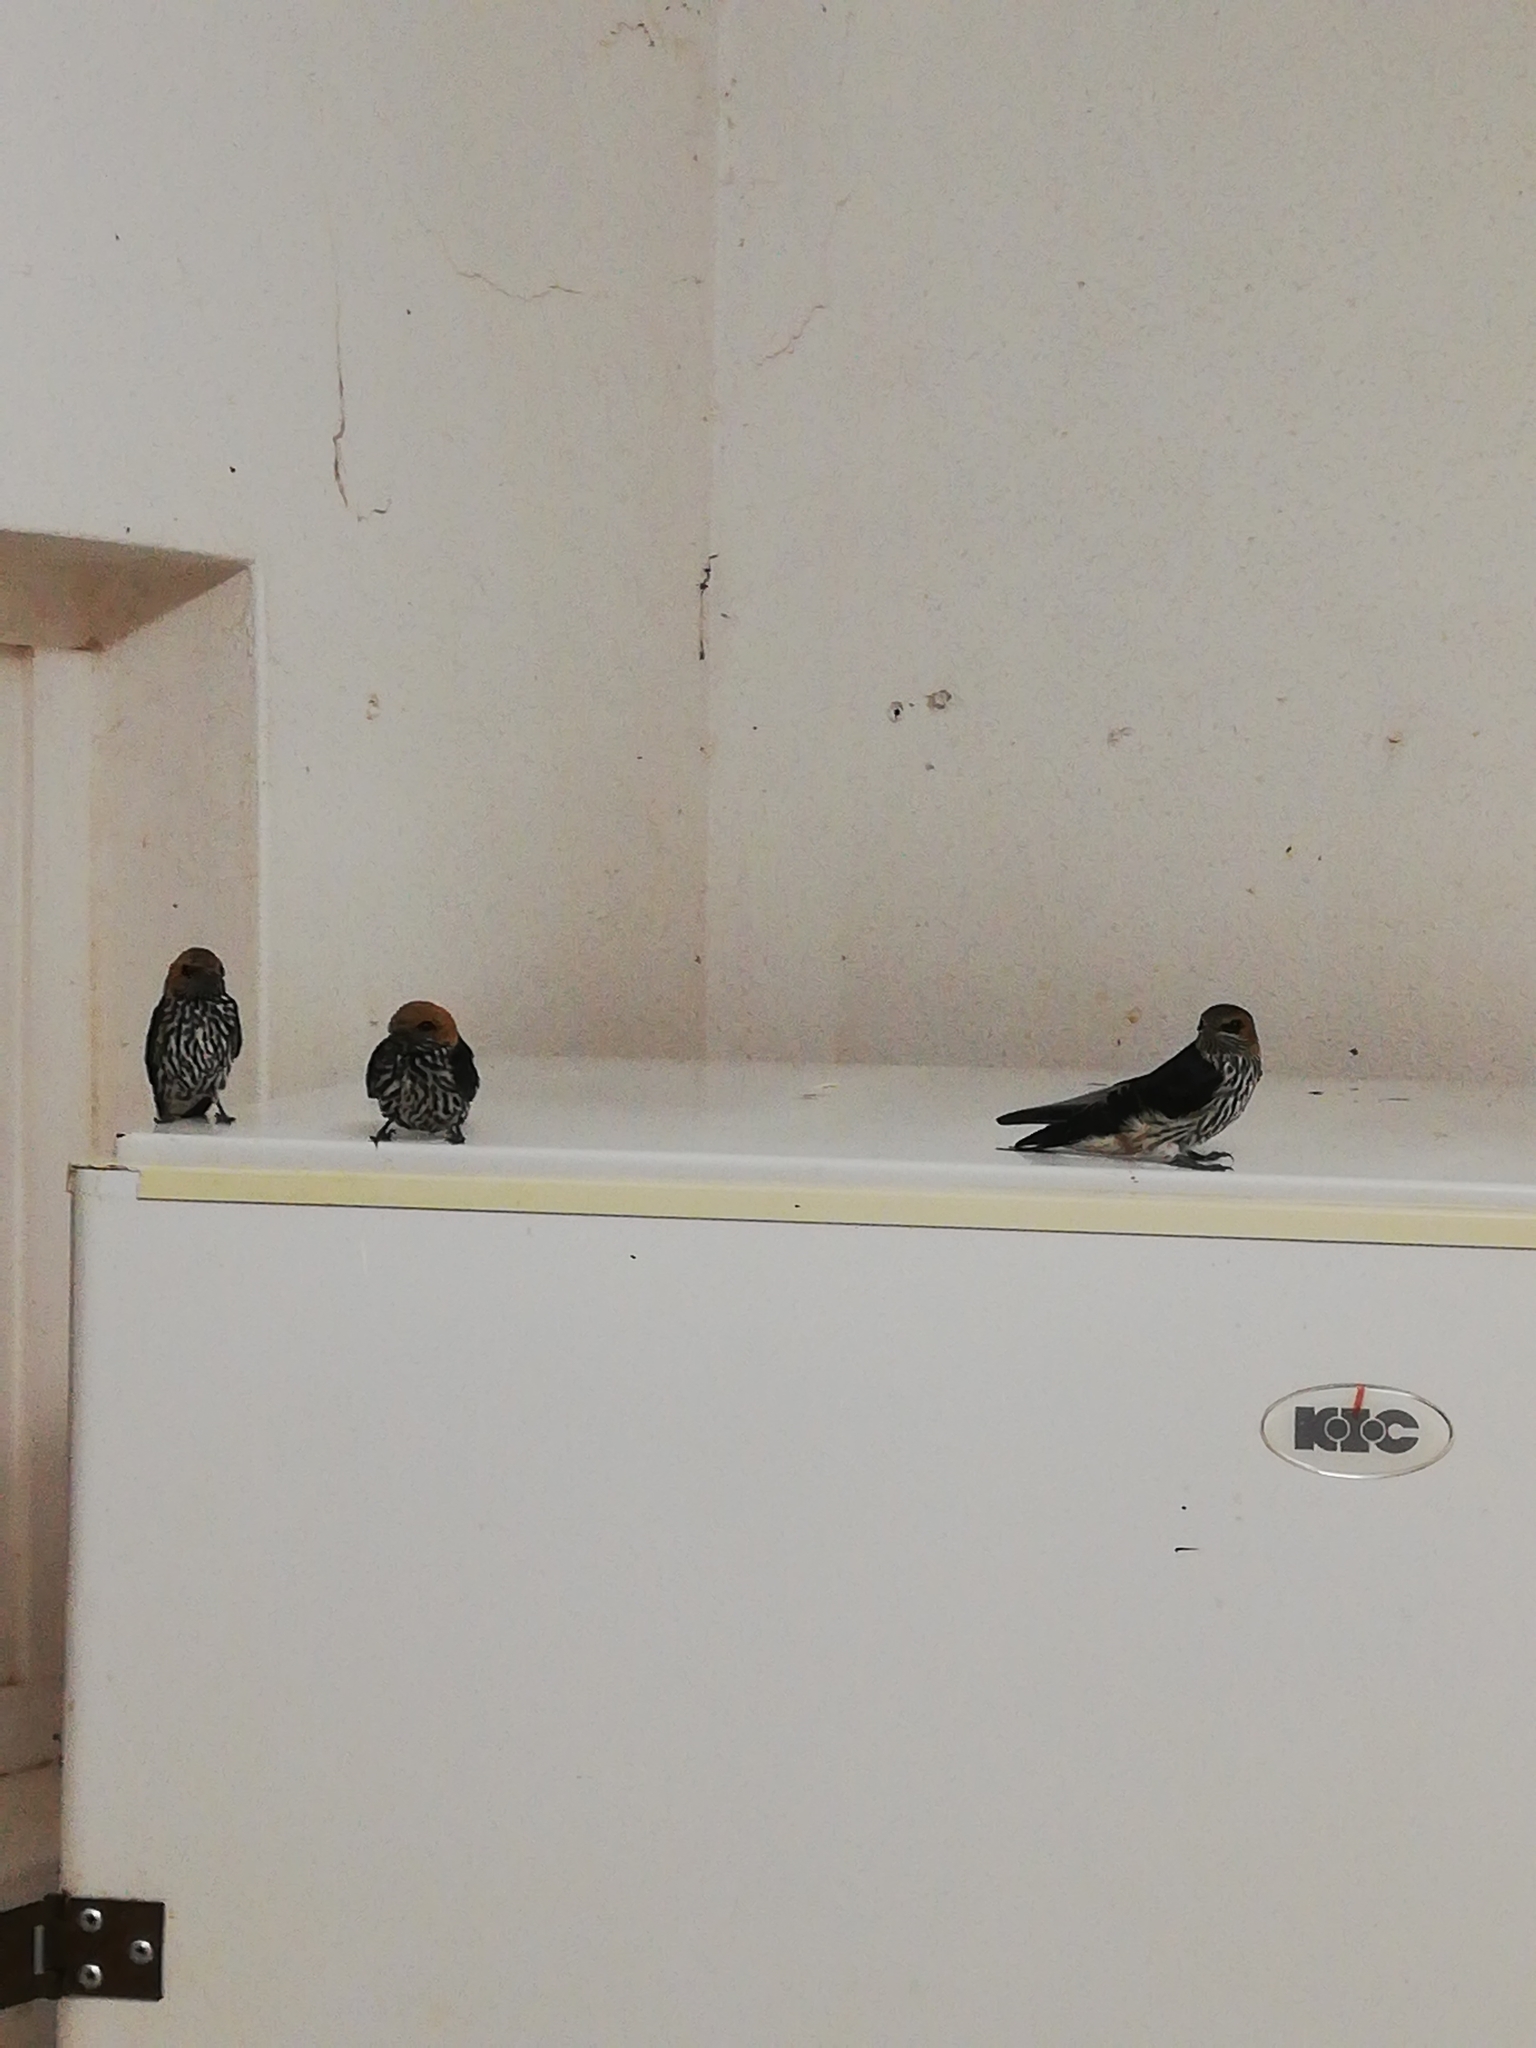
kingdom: Animalia
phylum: Chordata
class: Aves
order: Passeriformes
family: Hirundinidae
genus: Cecropis
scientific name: Cecropis abyssinica
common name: Lesser striped-swallow
